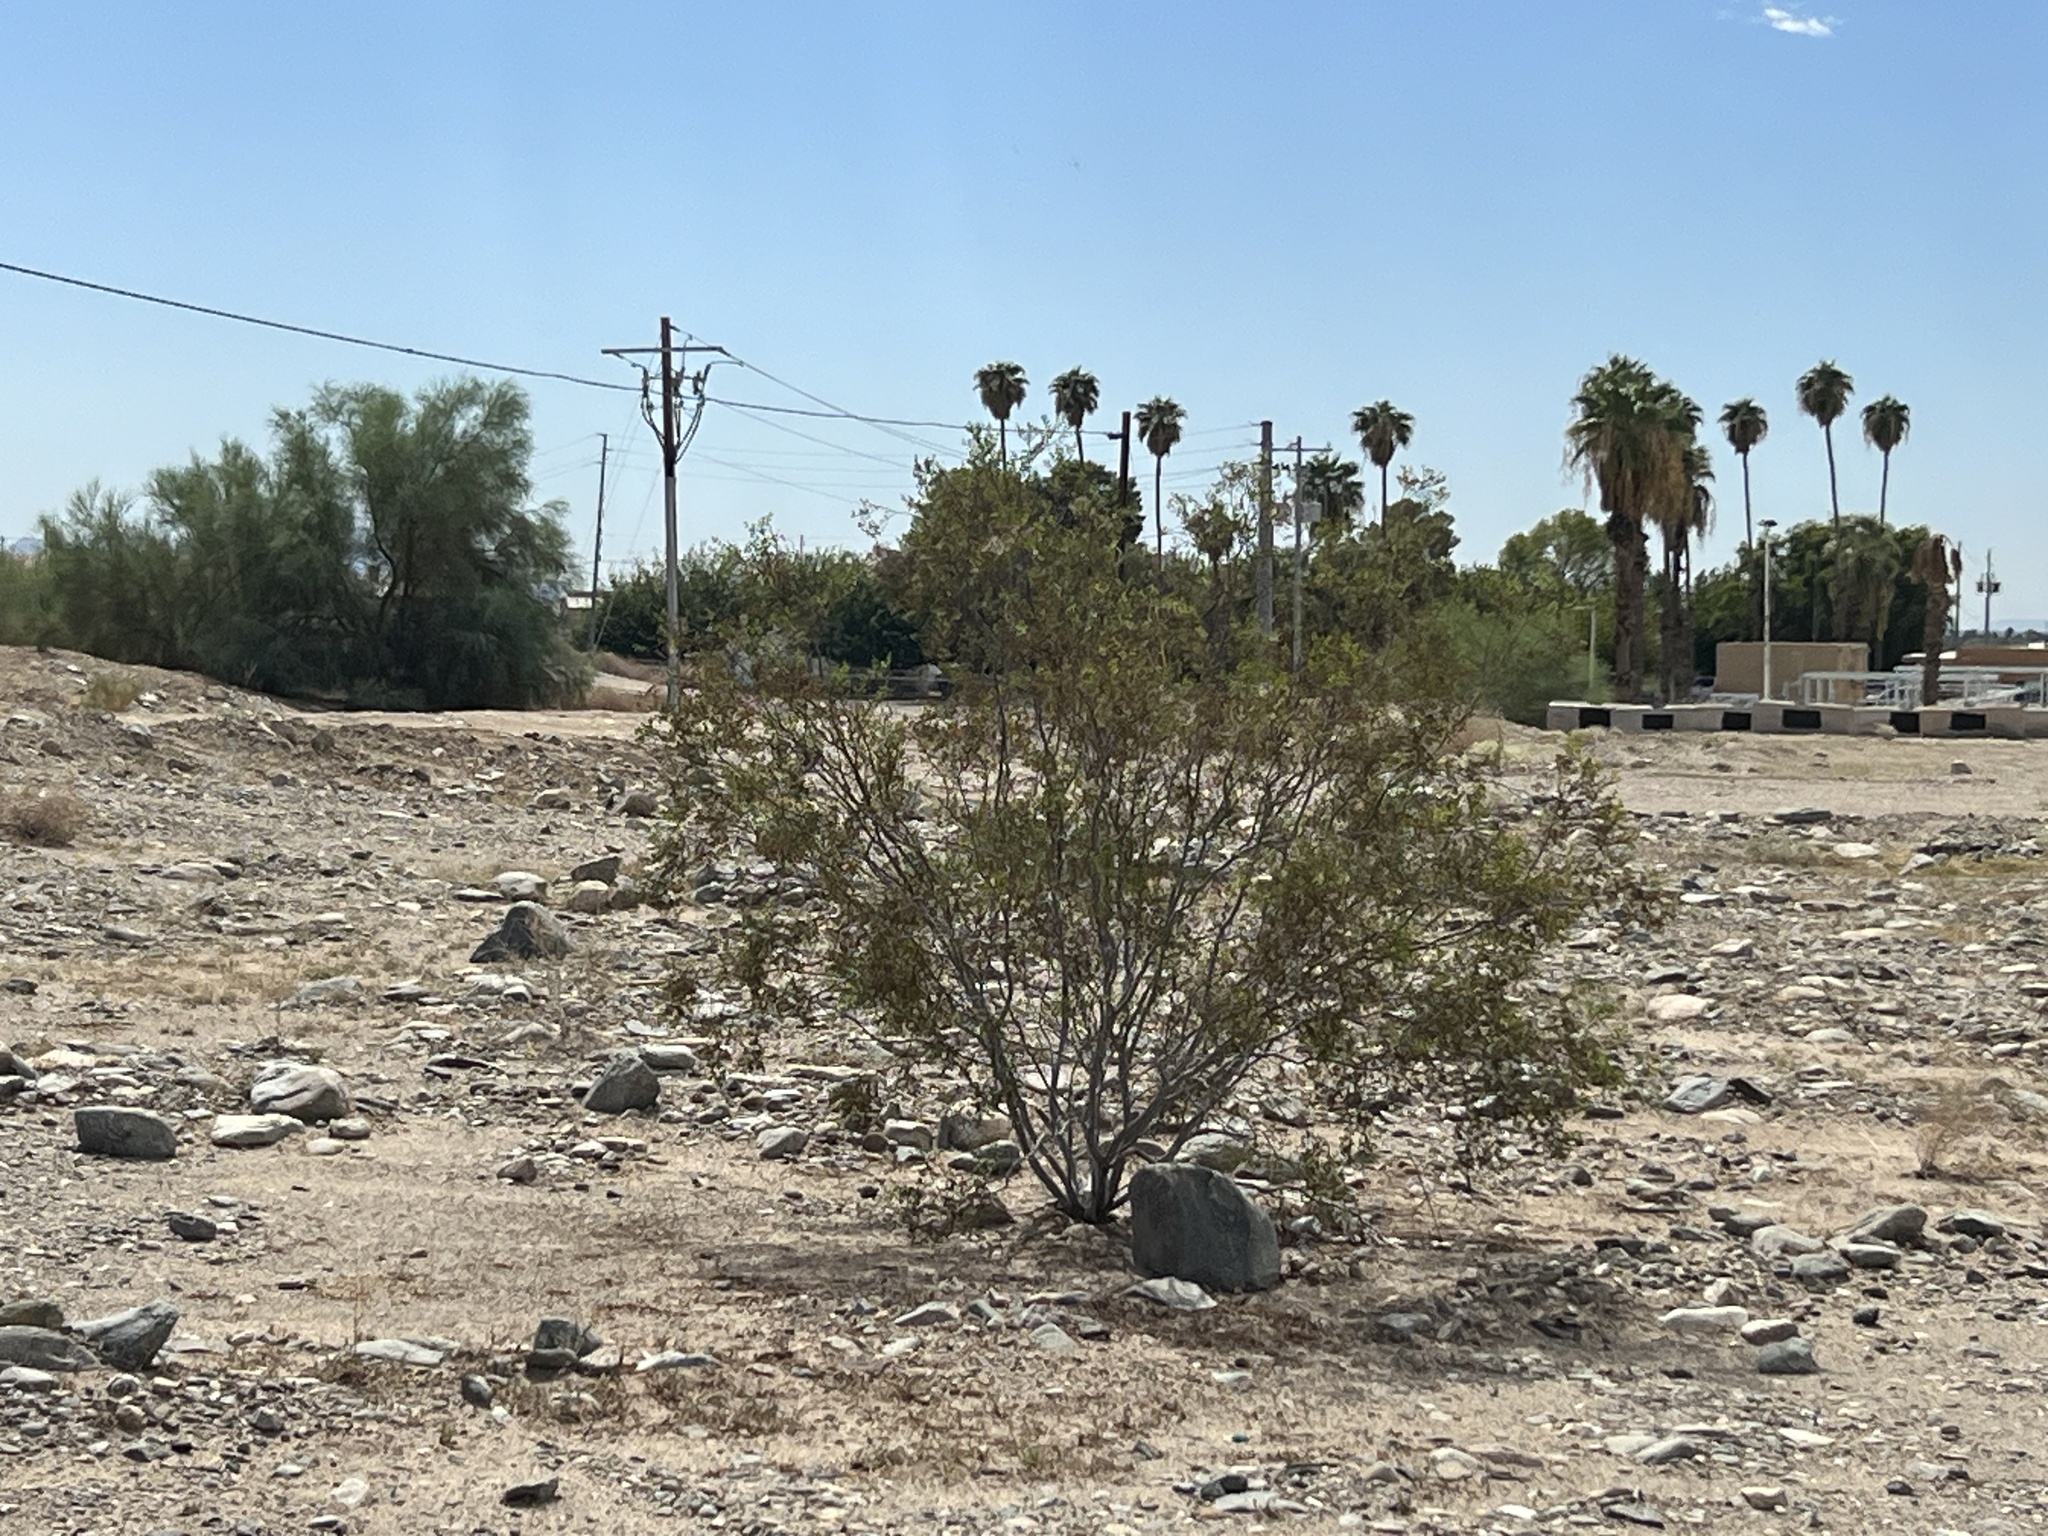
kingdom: Plantae
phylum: Tracheophyta
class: Magnoliopsida
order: Zygophyllales
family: Zygophyllaceae
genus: Larrea
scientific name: Larrea tridentata
